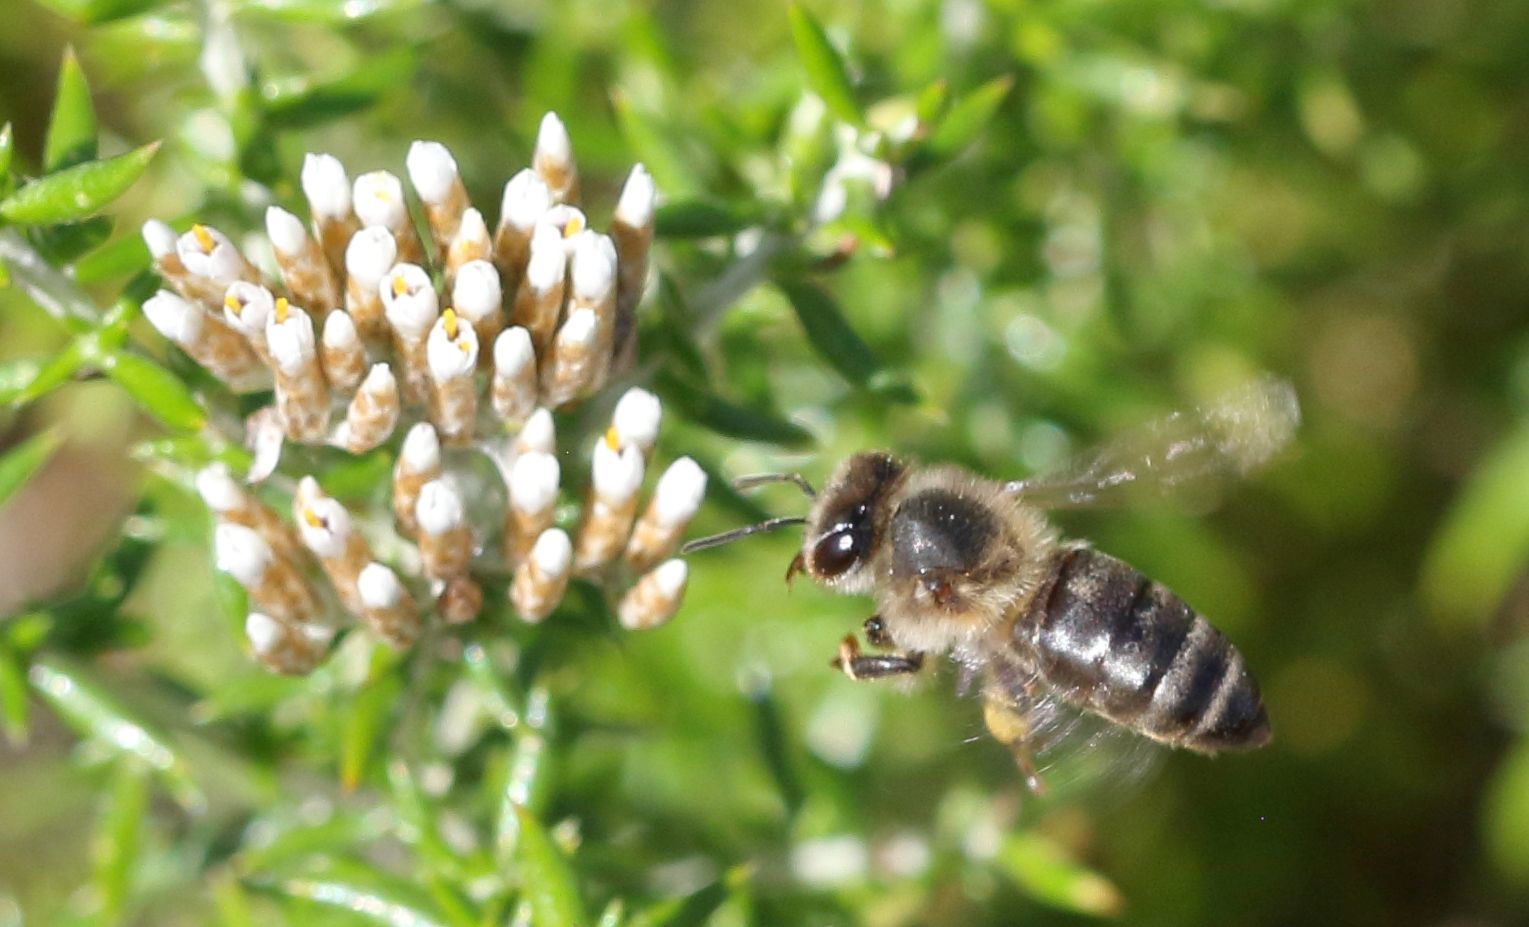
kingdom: Animalia
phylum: Arthropoda
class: Insecta
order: Hymenoptera
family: Apidae
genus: Apis
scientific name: Apis mellifera
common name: Honey bee
